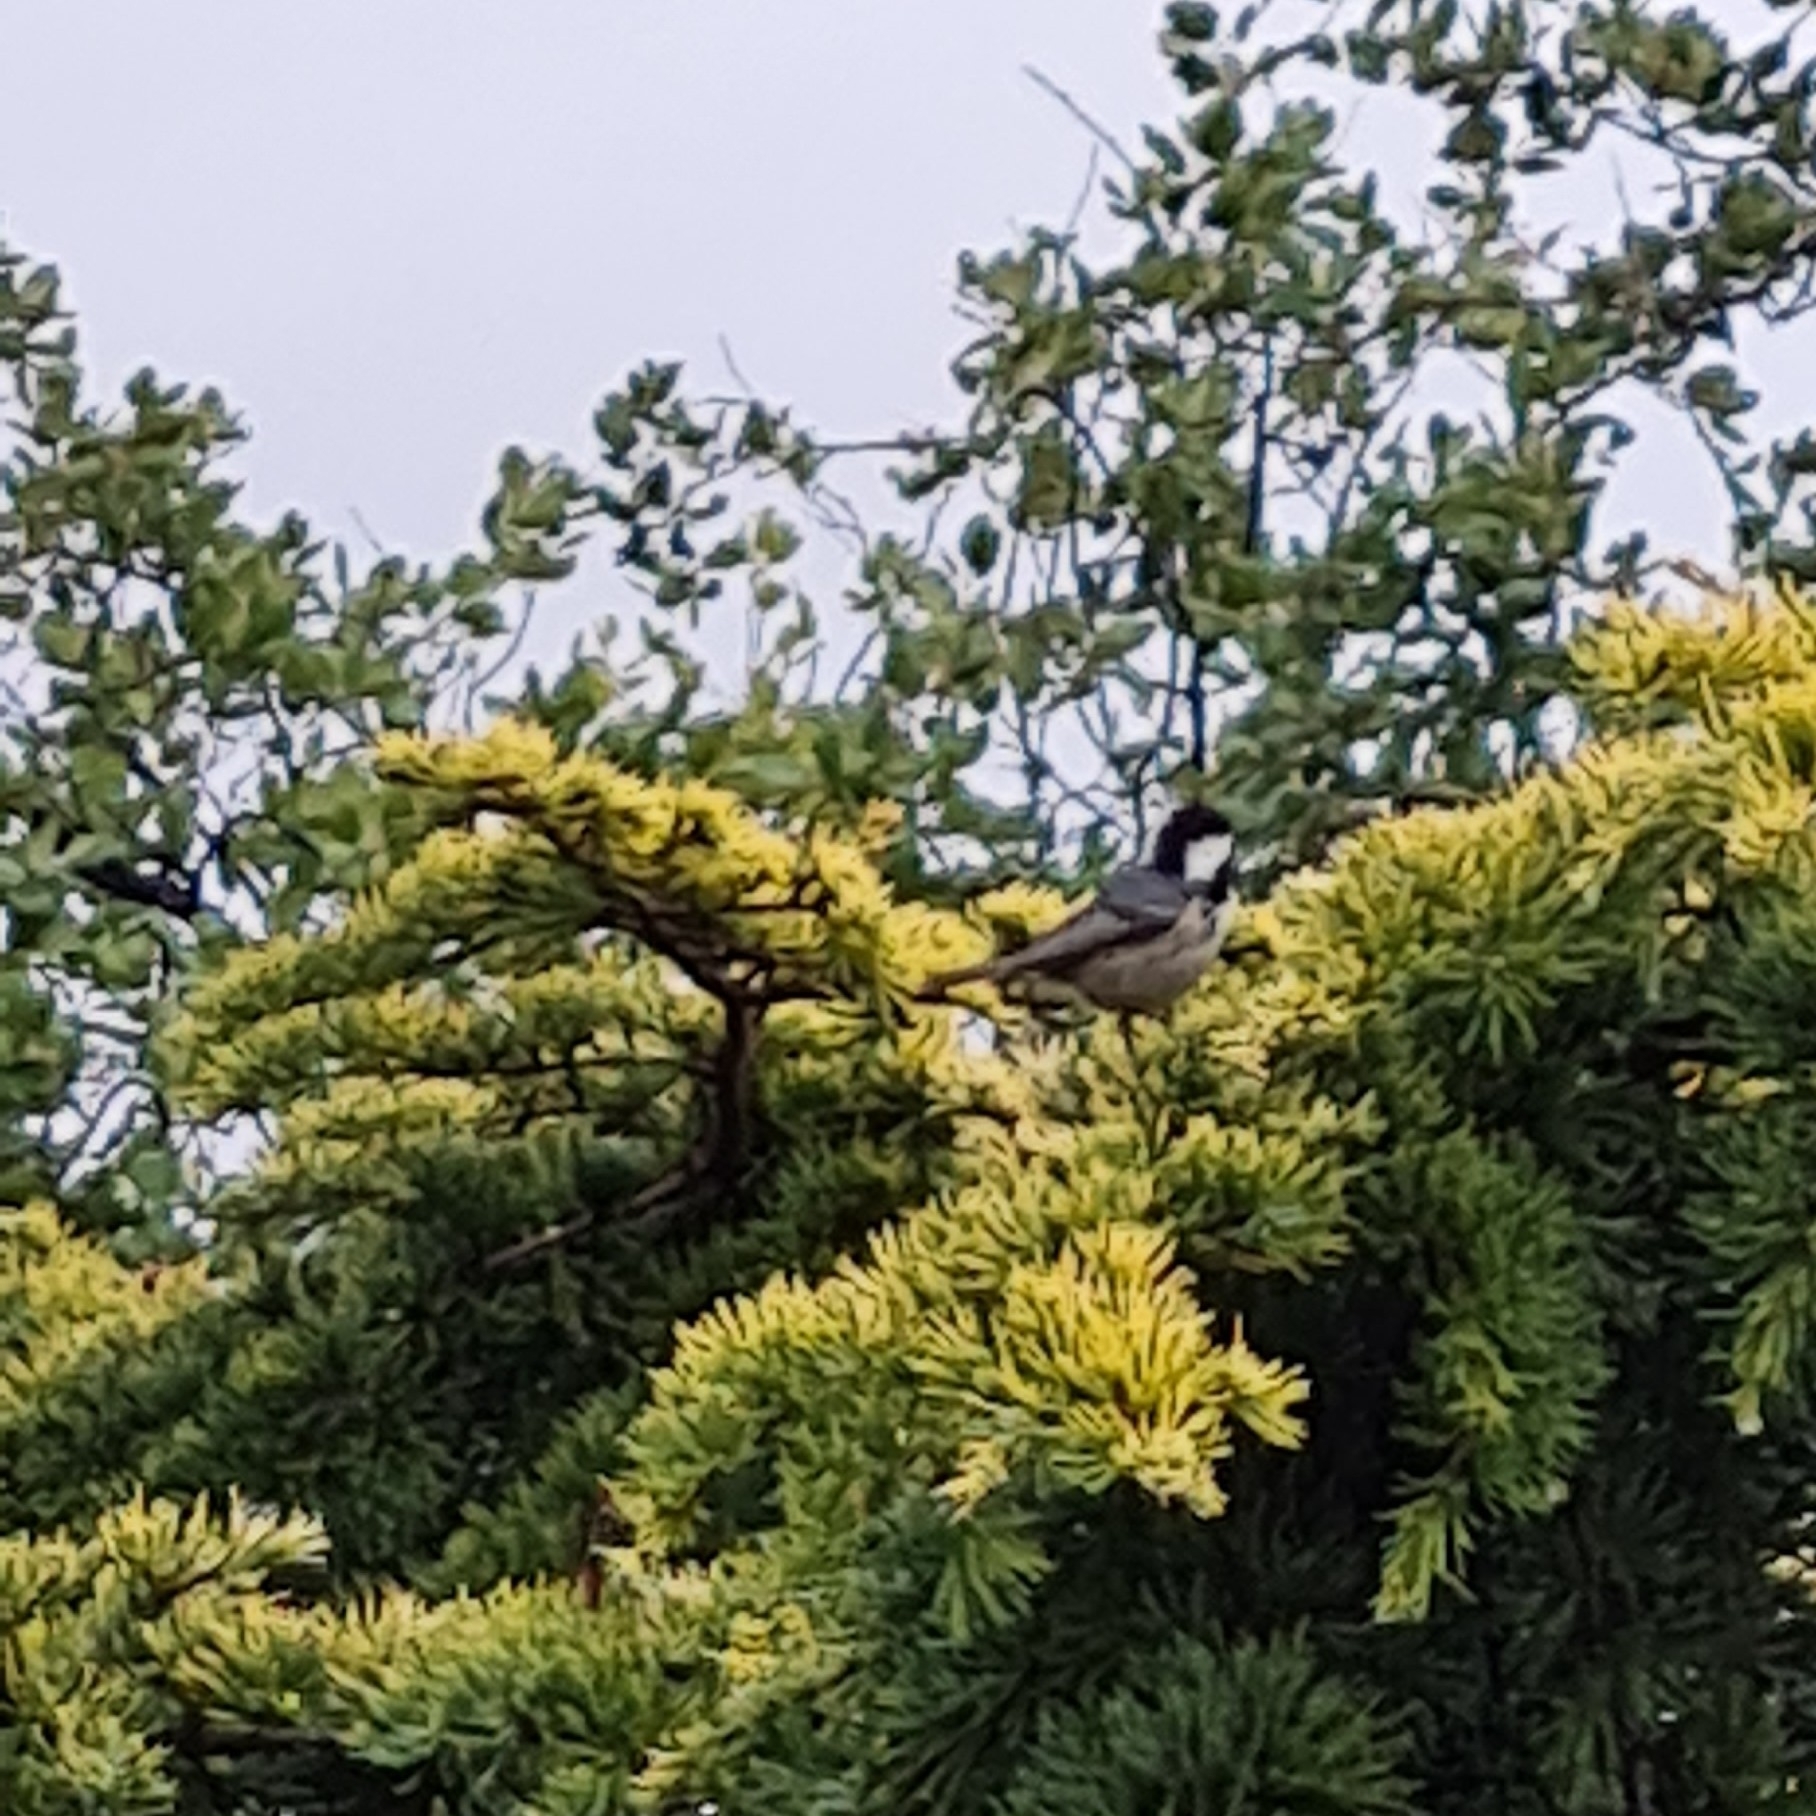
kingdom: Animalia
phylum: Chordata
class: Aves
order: Passeriformes
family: Paridae
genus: Periparus
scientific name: Periparus ater
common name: Coal tit
